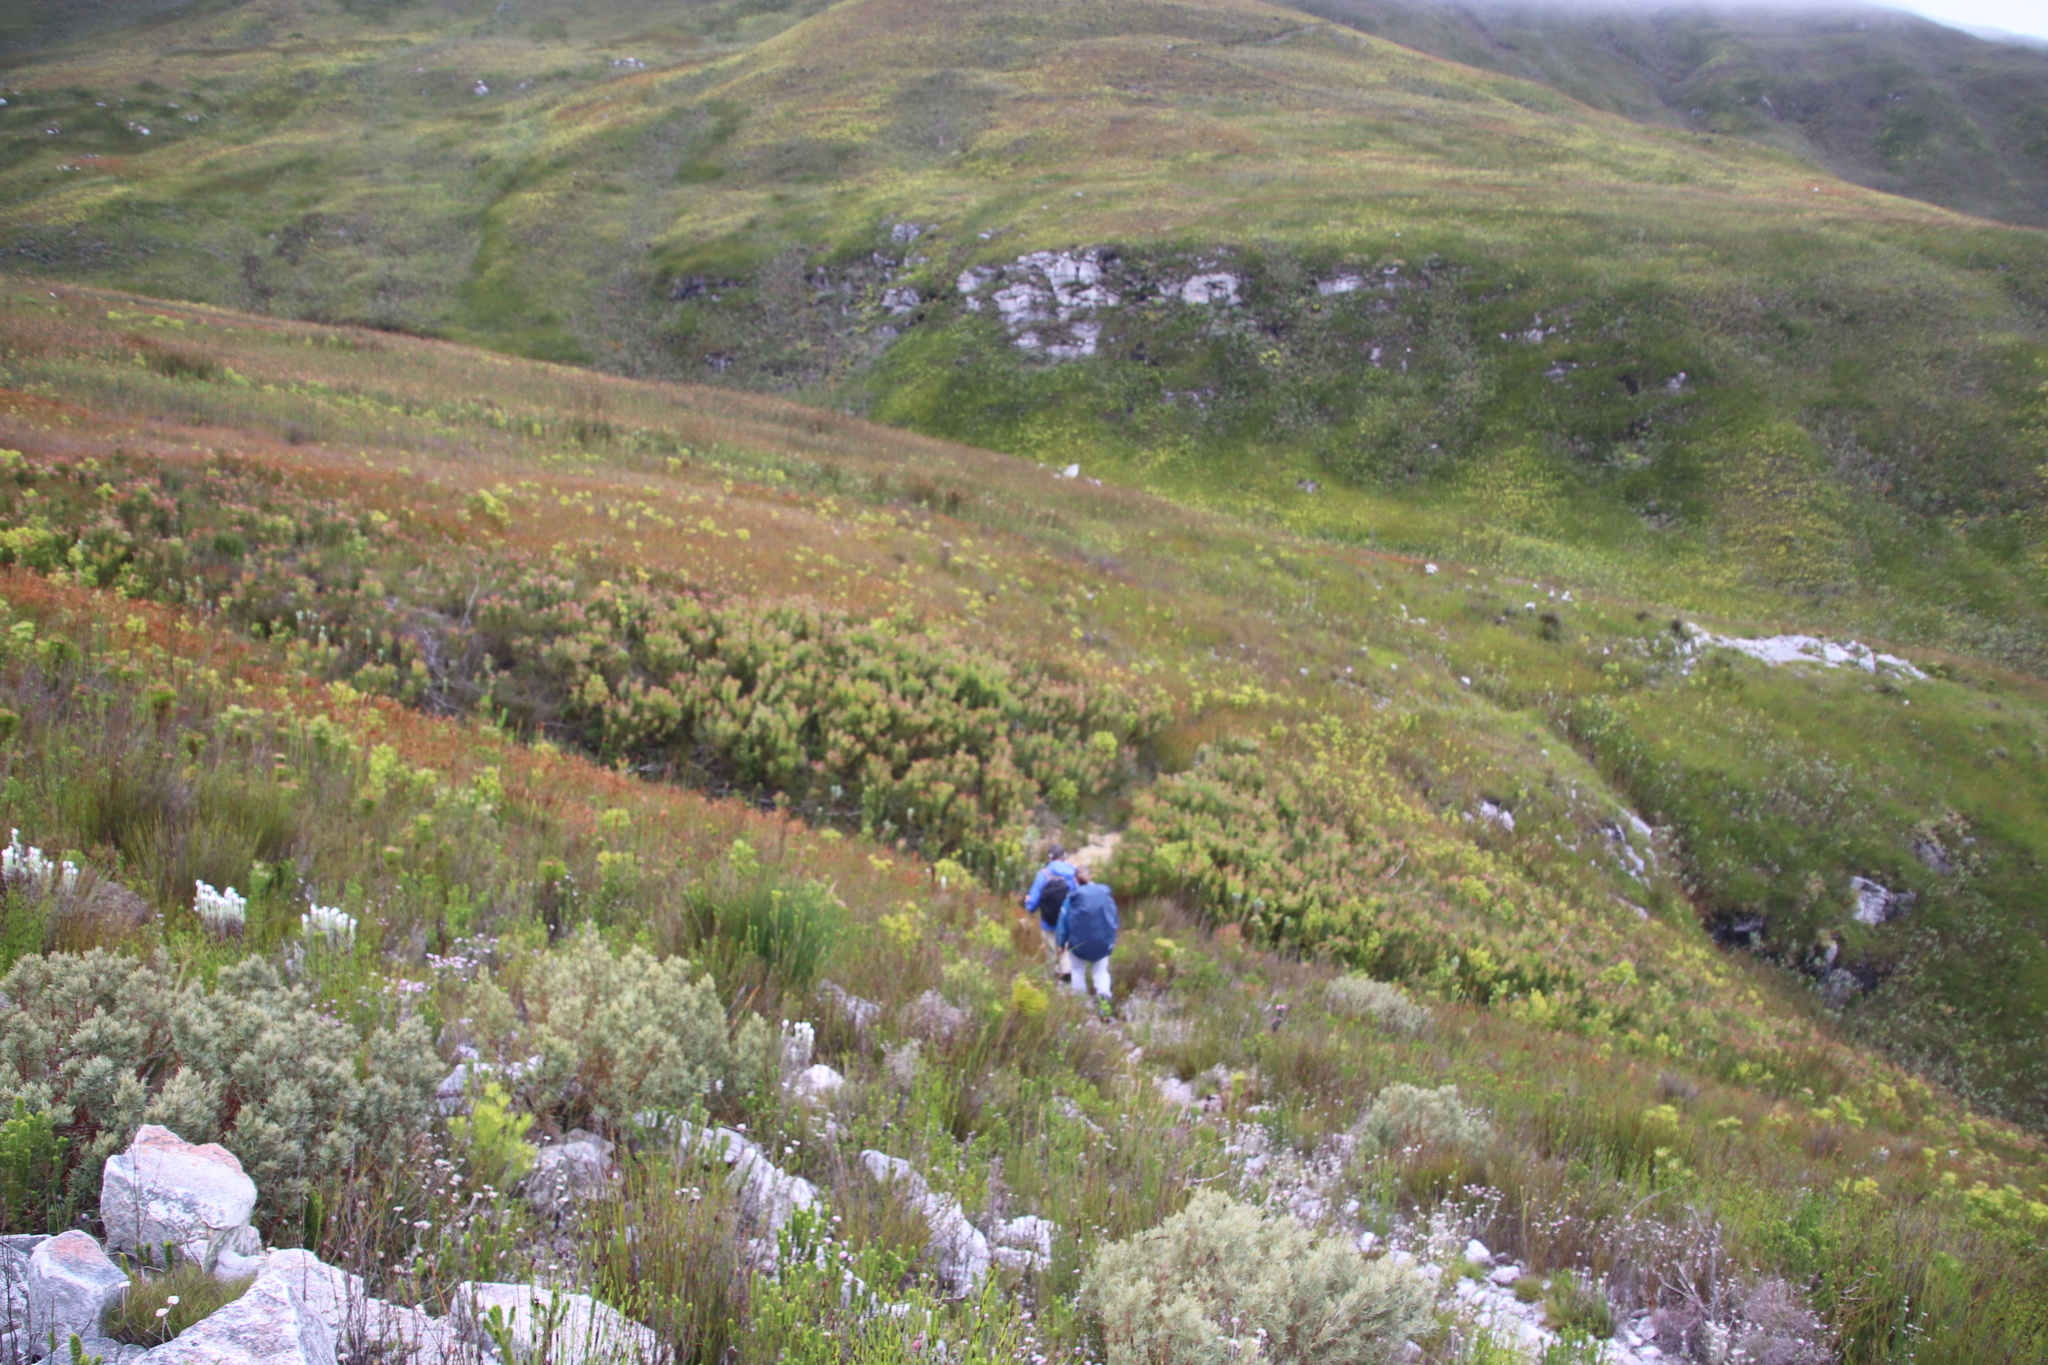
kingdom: Plantae
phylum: Tracheophyta
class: Magnoliopsida
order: Proteales
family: Proteaceae
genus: Protea
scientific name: Protea lepidocarpodendron
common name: Black-bearded protea
